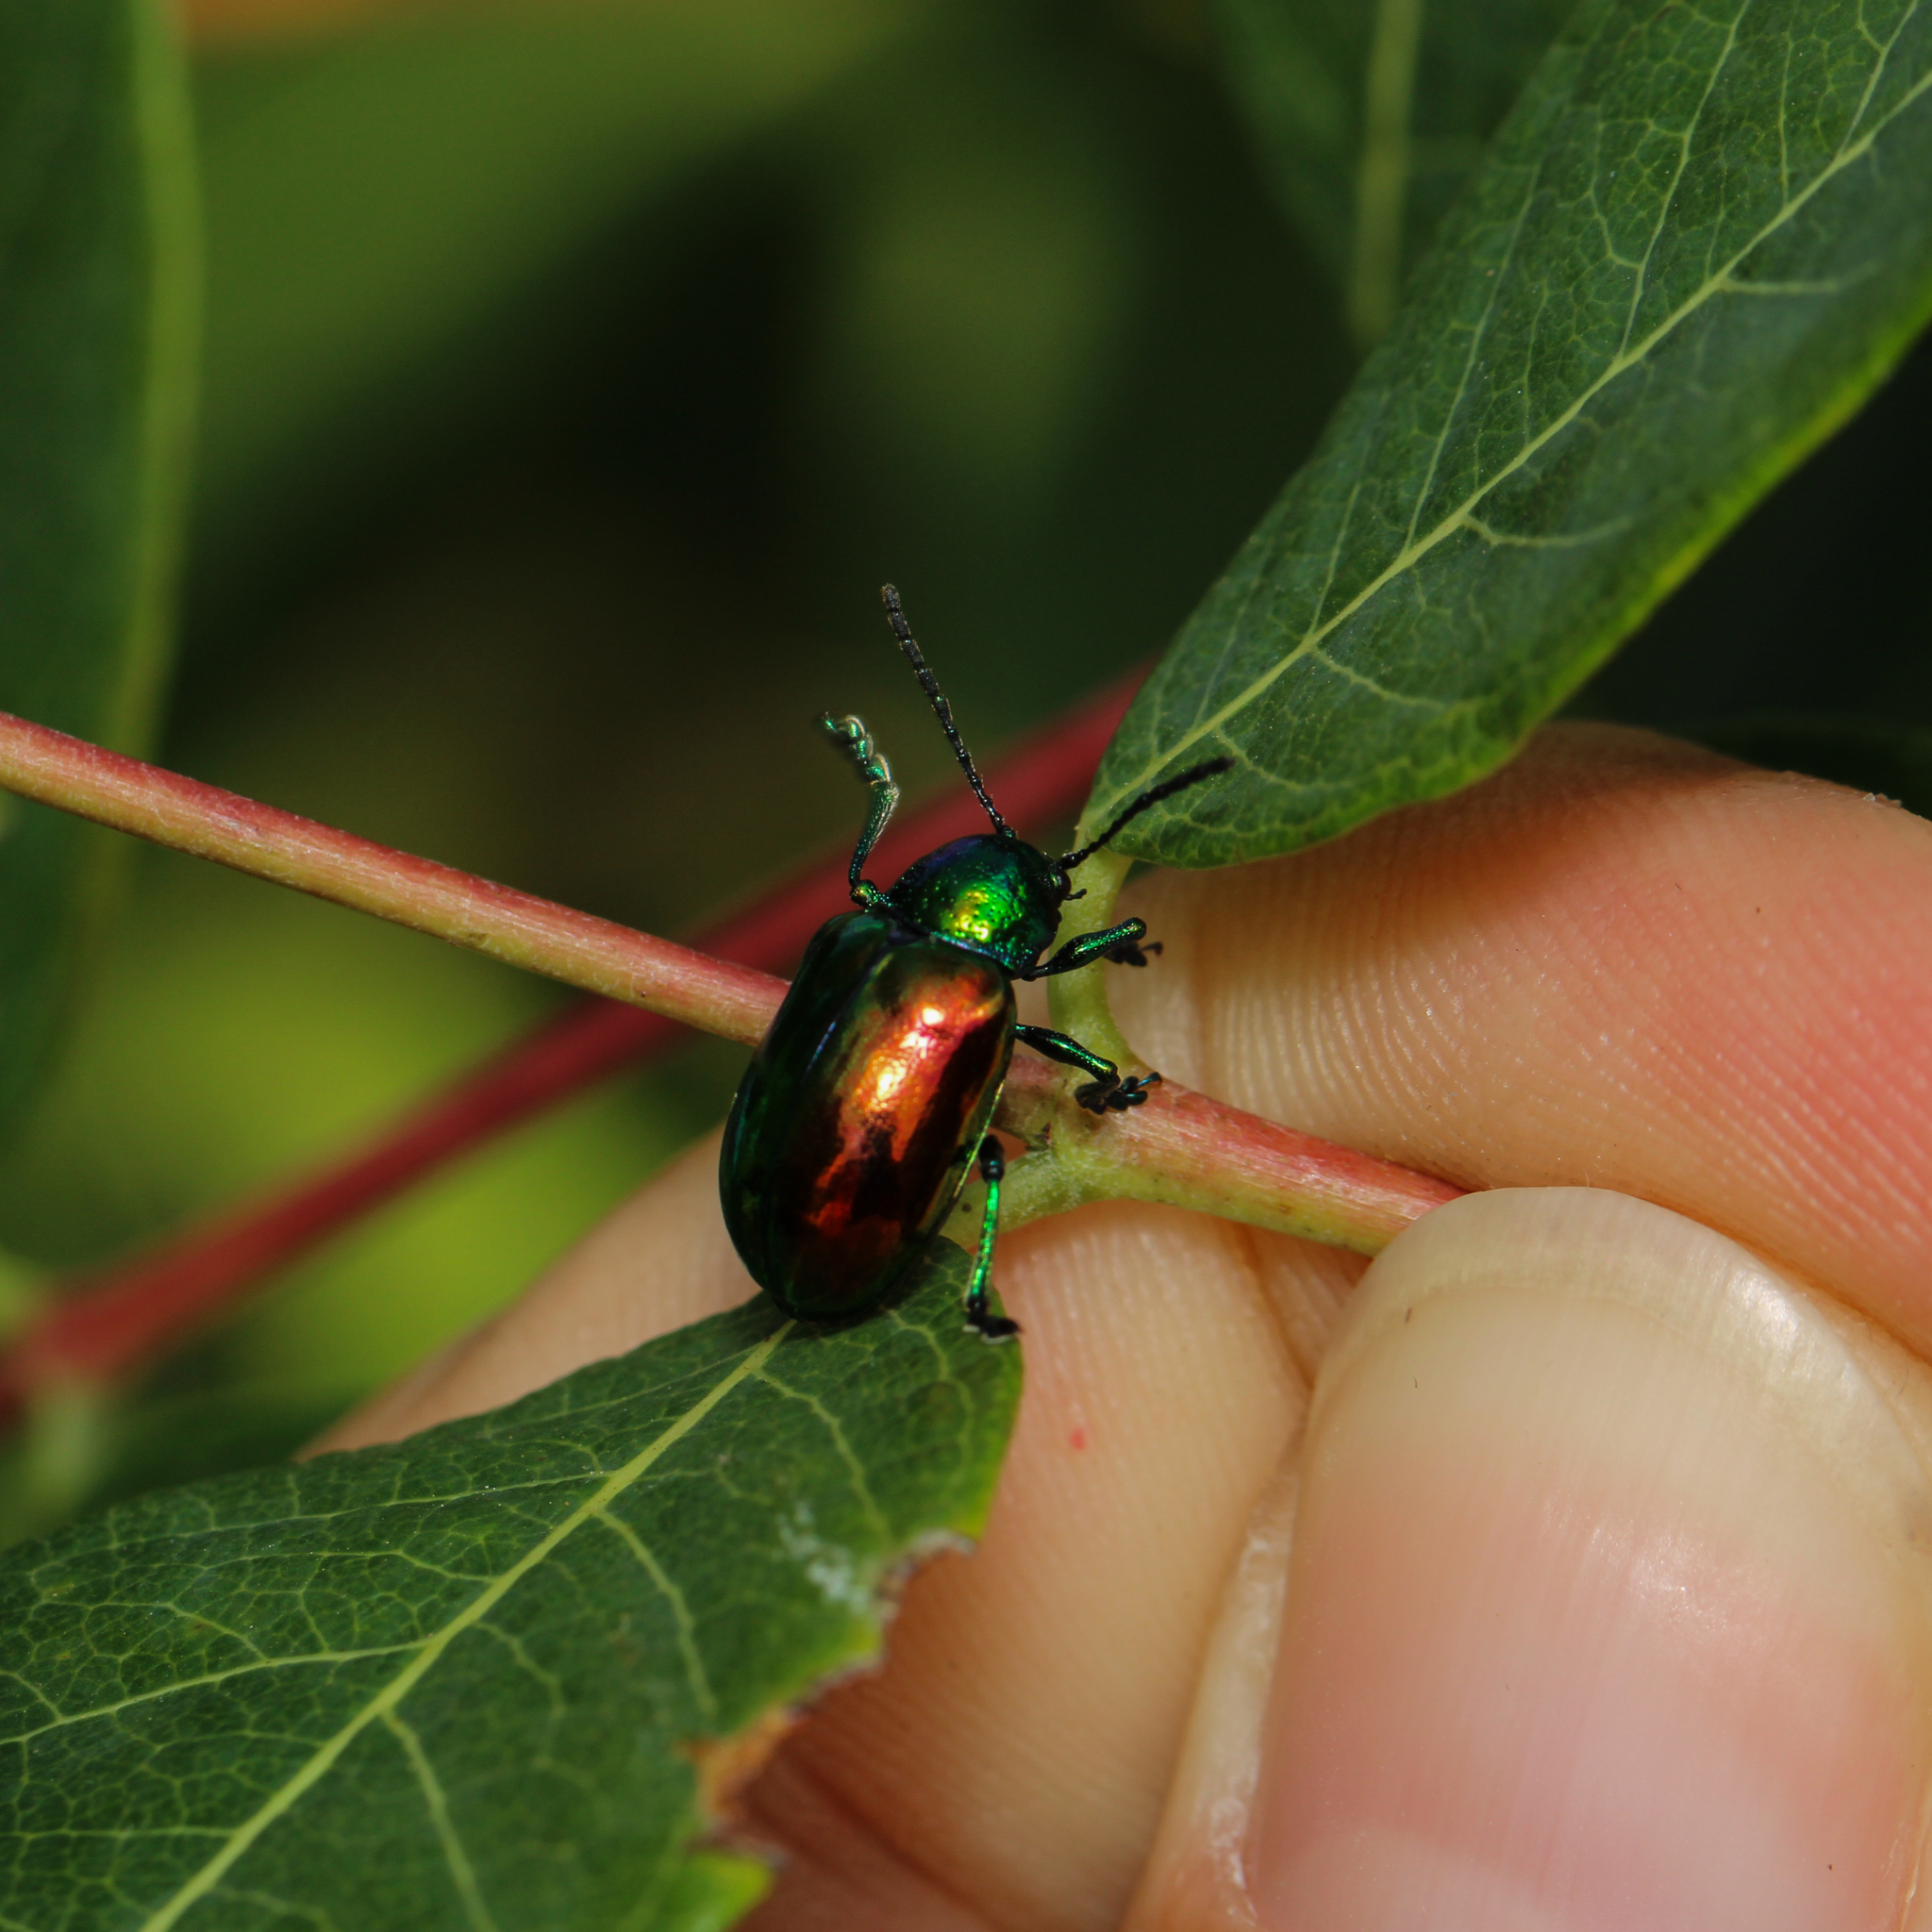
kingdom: Animalia
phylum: Arthropoda
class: Insecta
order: Coleoptera
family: Chrysomelidae
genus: Chrysochus
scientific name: Chrysochus auratus
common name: Dogbane leaf beetle
